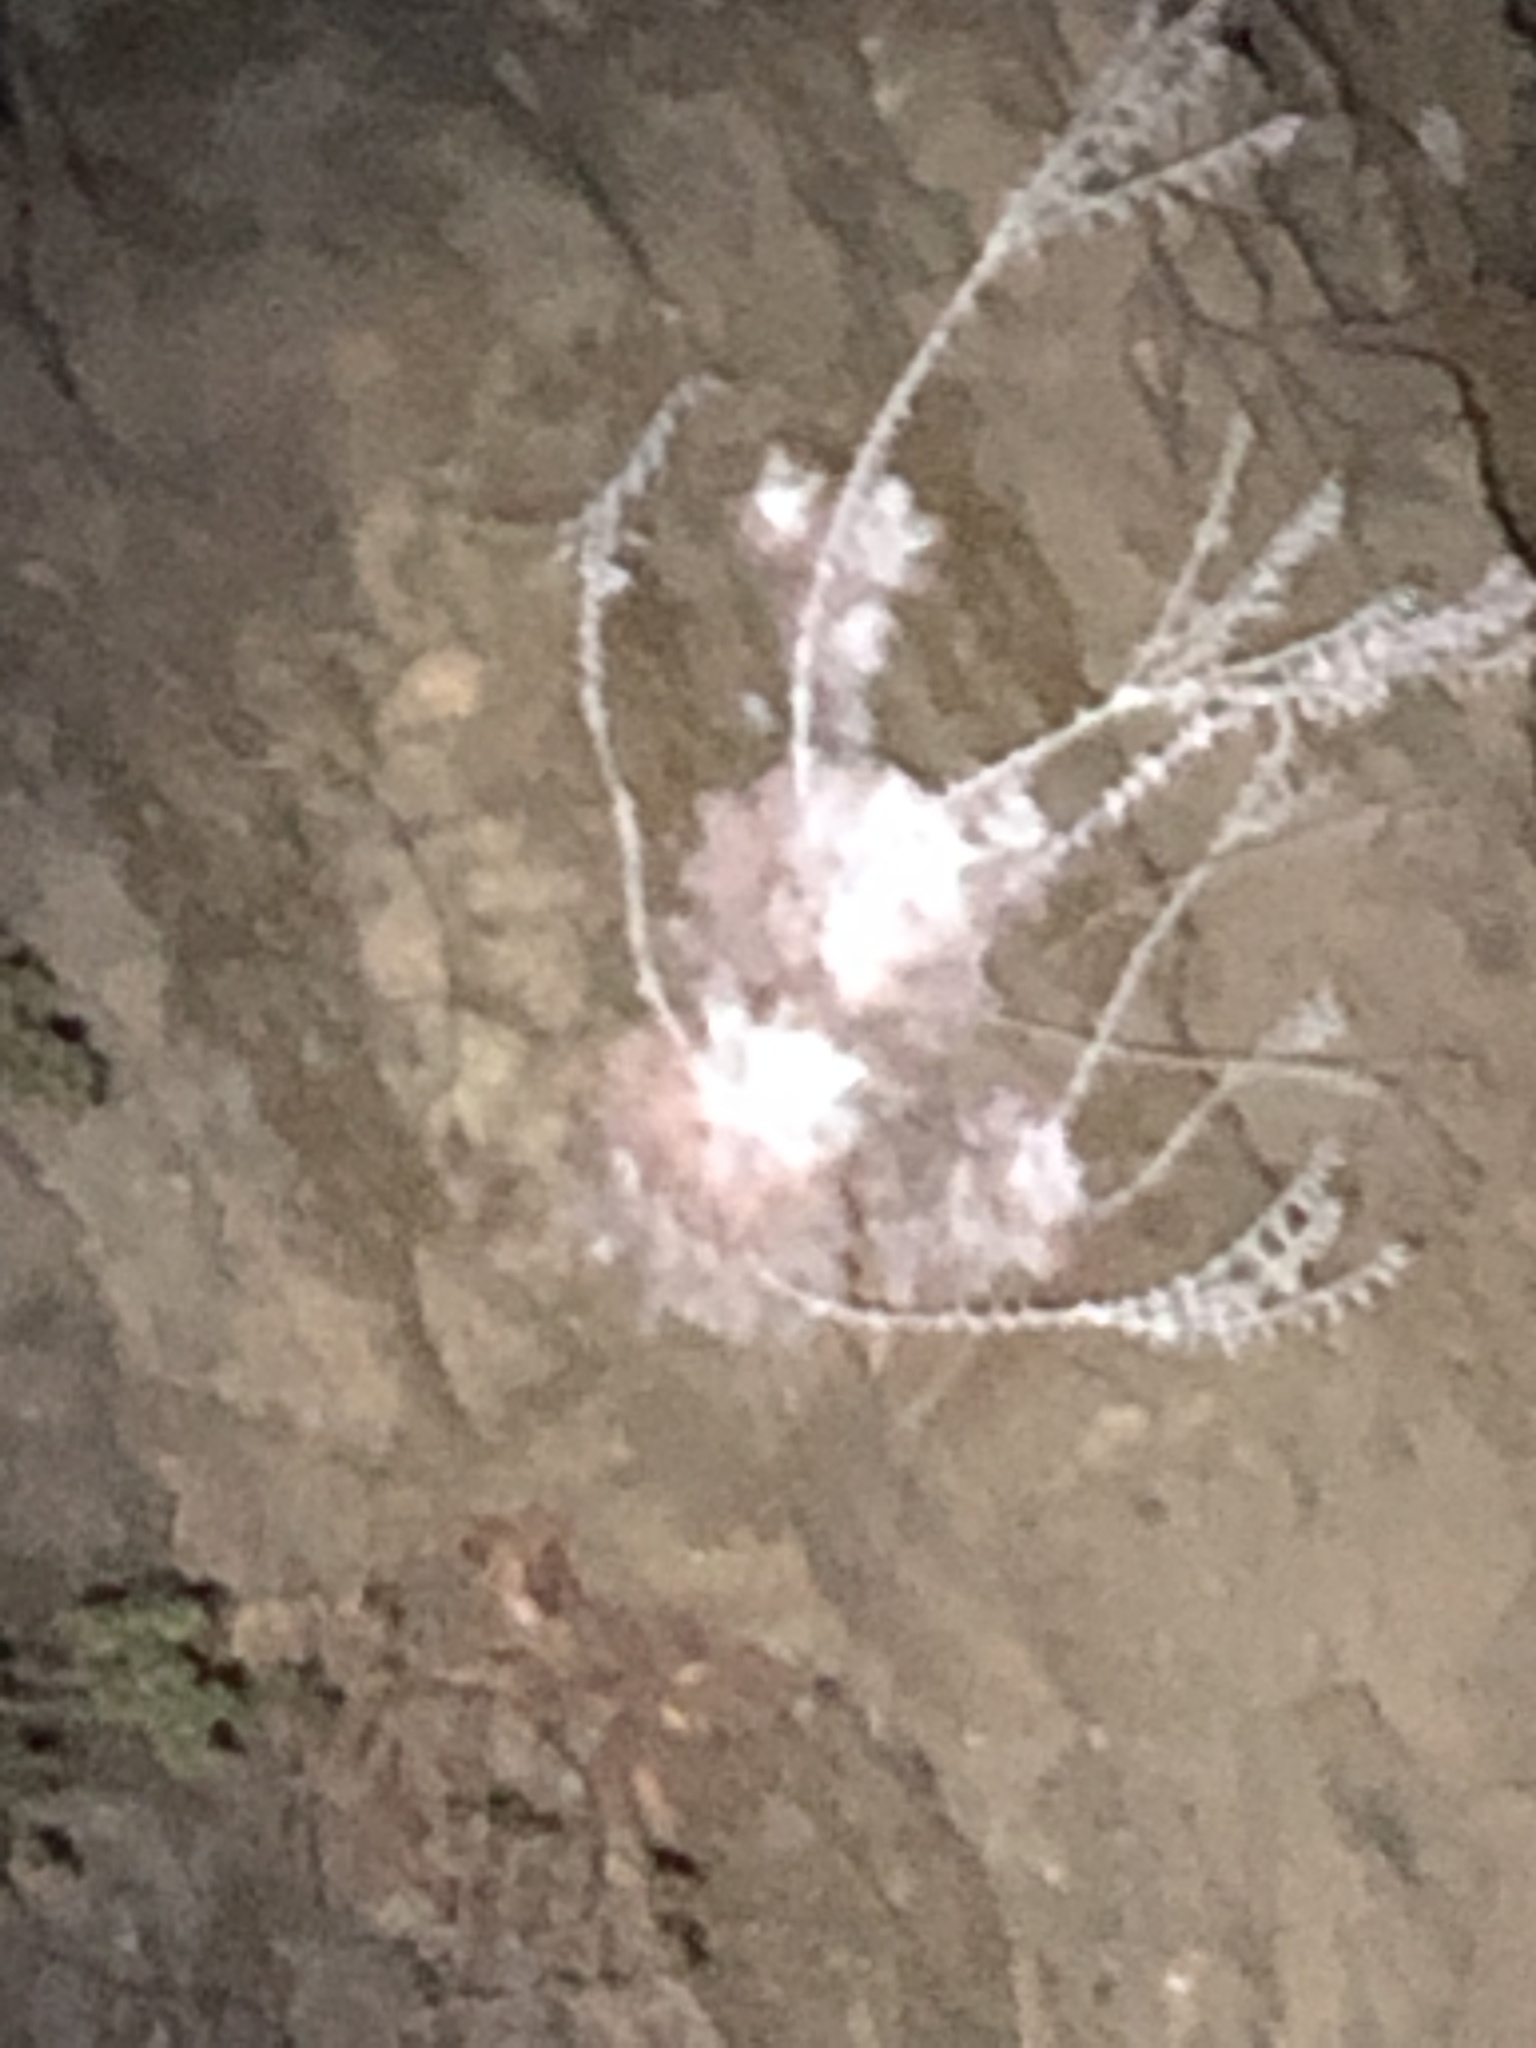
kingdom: Plantae
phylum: Tracheophyta
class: Magnoliopsida
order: Saxifragales
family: Crassulaceae
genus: Dudleya
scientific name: Dudleya pulverulenta
